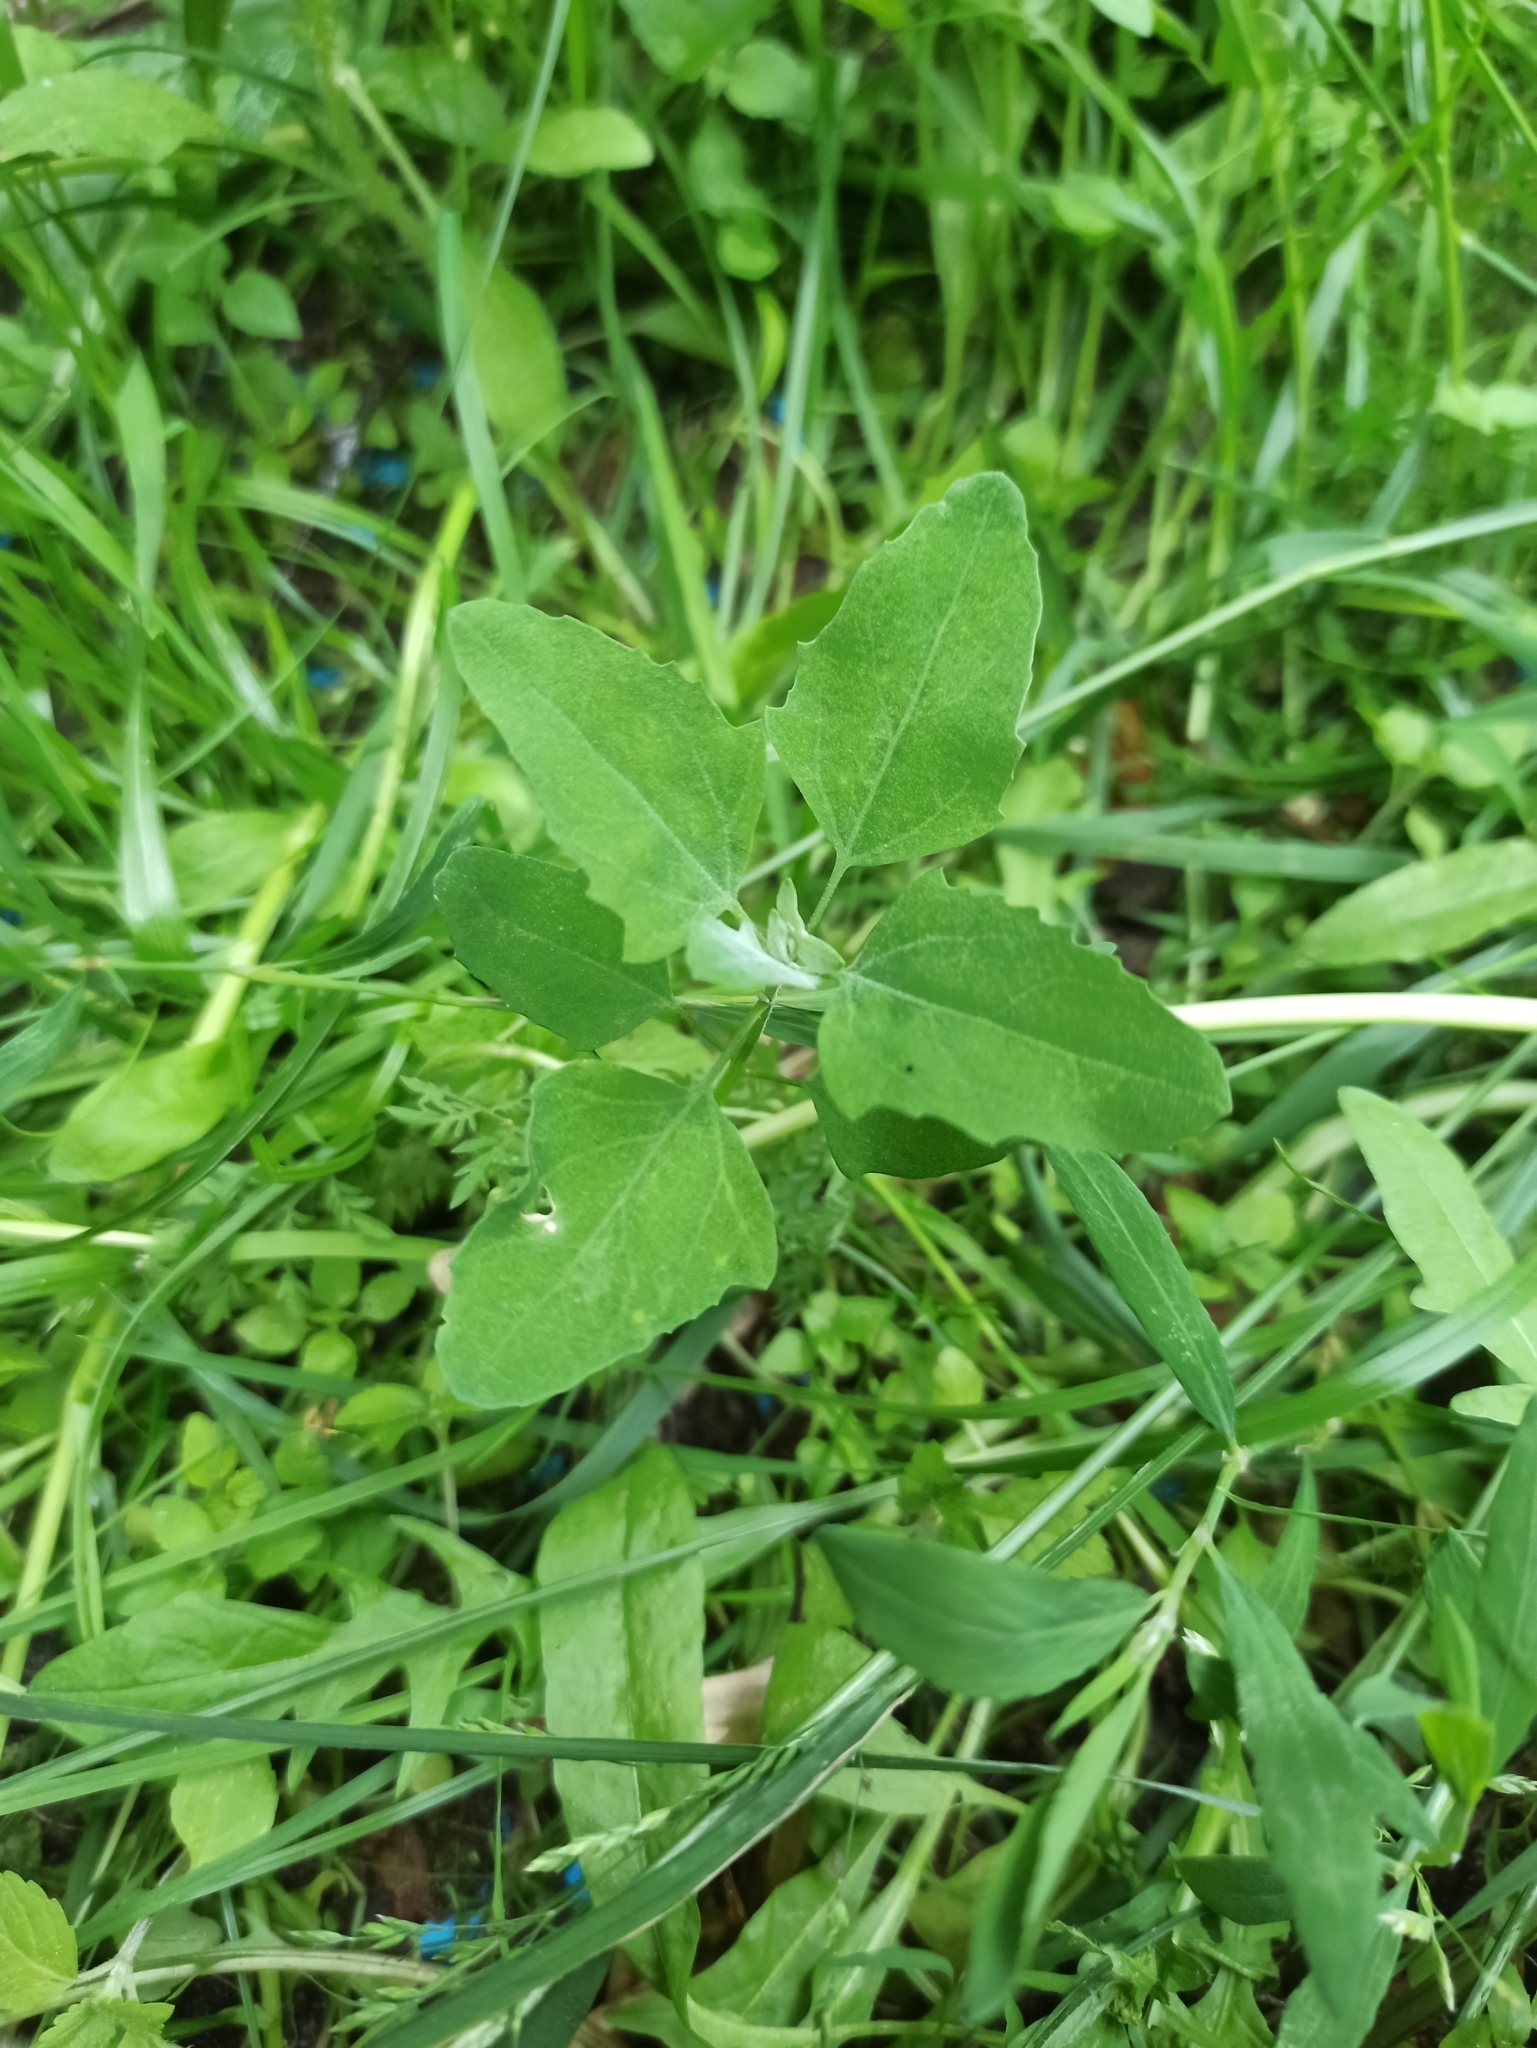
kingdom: Plantae
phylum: Tracheophyta
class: Magnoliopsida
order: Caryophyllales
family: Amaranthaceae
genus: Chenopodium
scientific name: Chenopodium album
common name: Fat-hen
